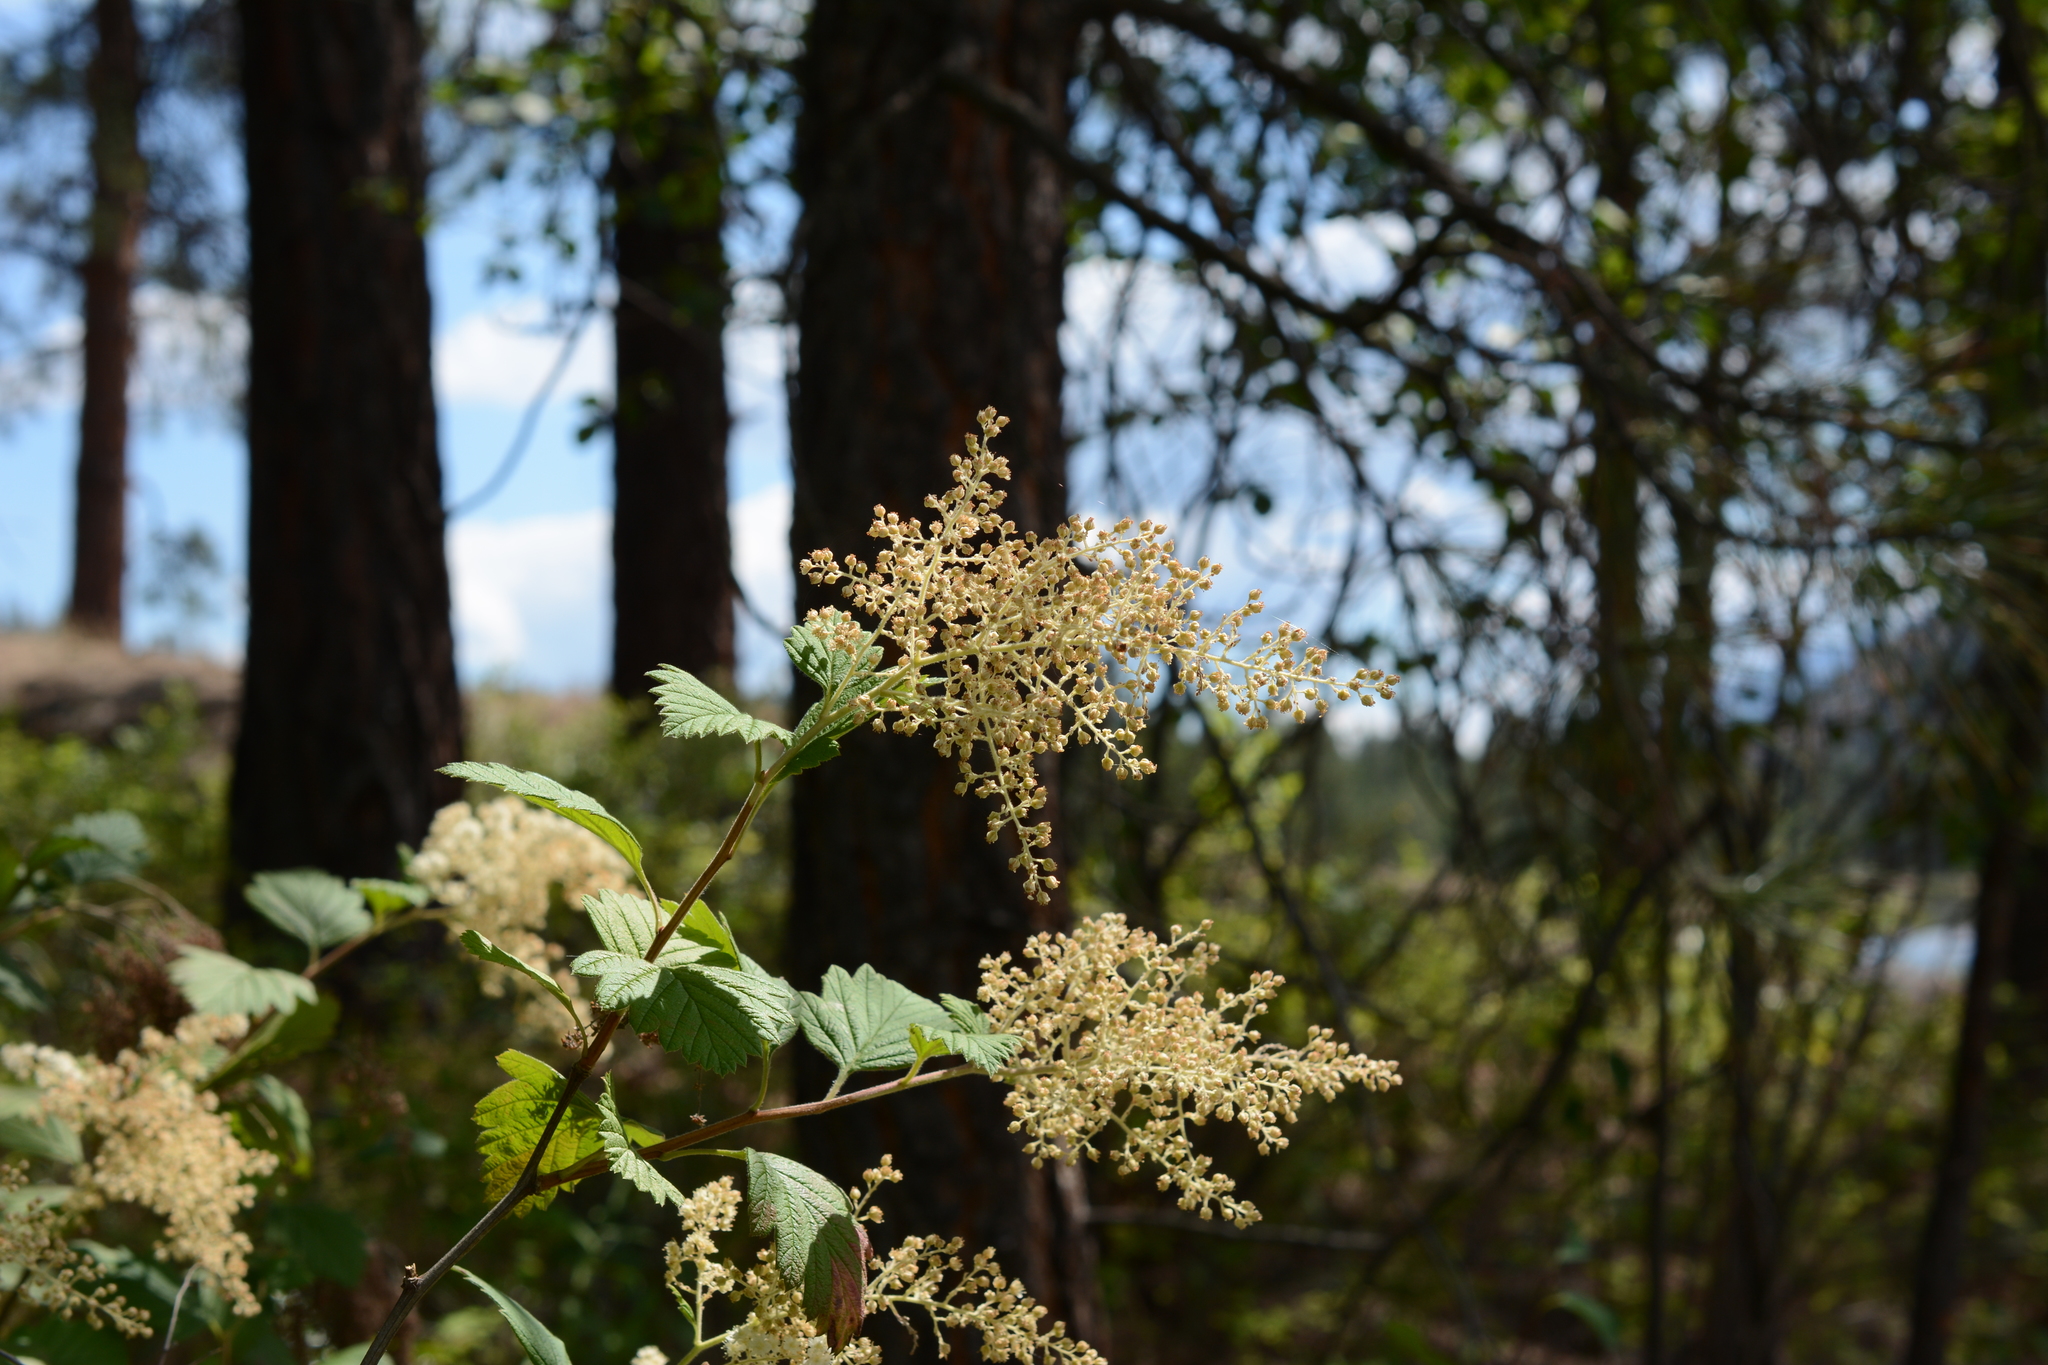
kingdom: Plantae
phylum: Tracheophyta
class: Magnoliopsida
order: Rosales
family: Rosaceae
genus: Holodiscus
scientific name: Holodiscus discolor
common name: Oceanspray
